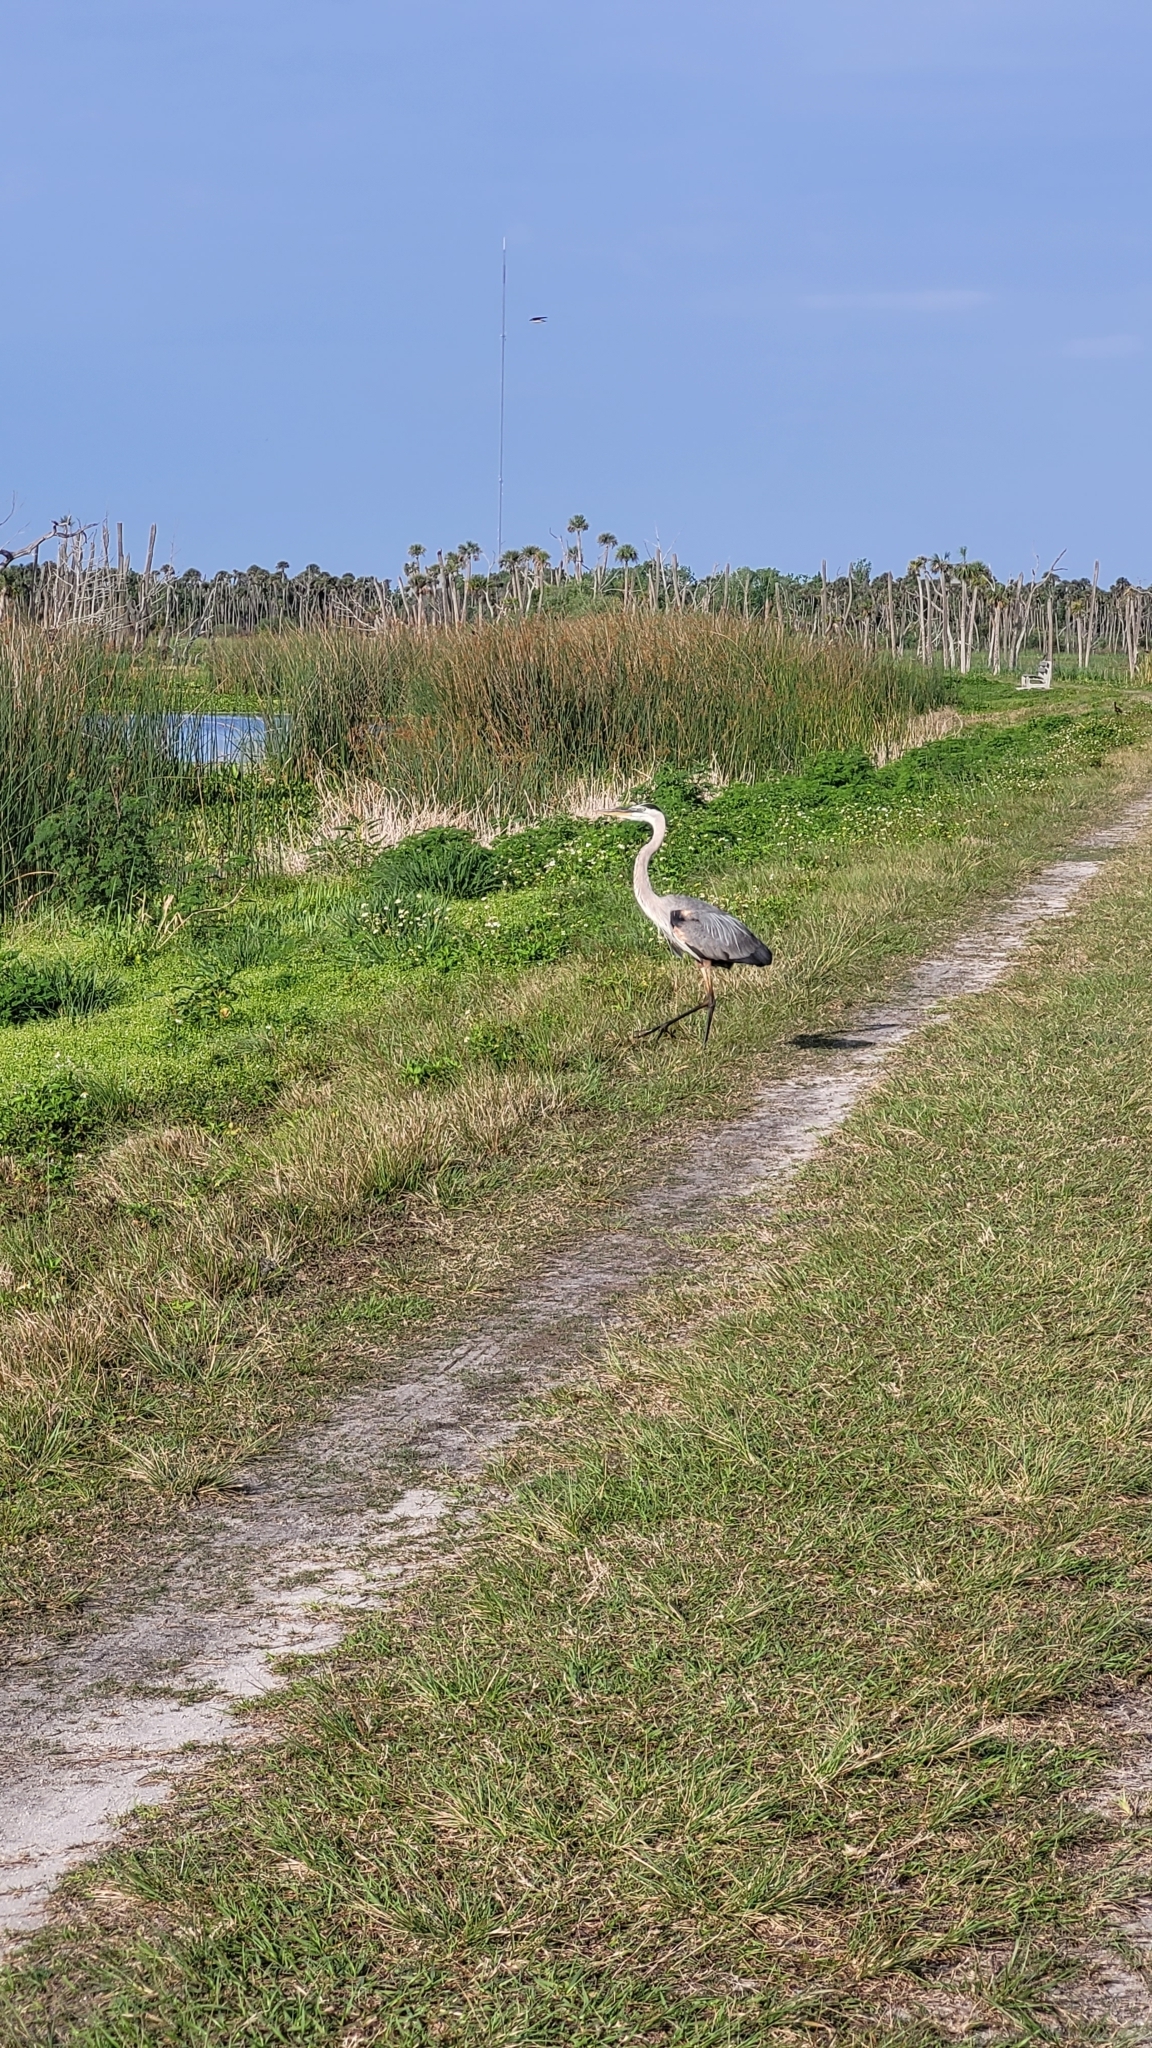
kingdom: Animalia
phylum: Chordata
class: Aves
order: Pelecaniformes
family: Ardeidae
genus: Ardea
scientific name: Ardea herodias
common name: Great blue heron
